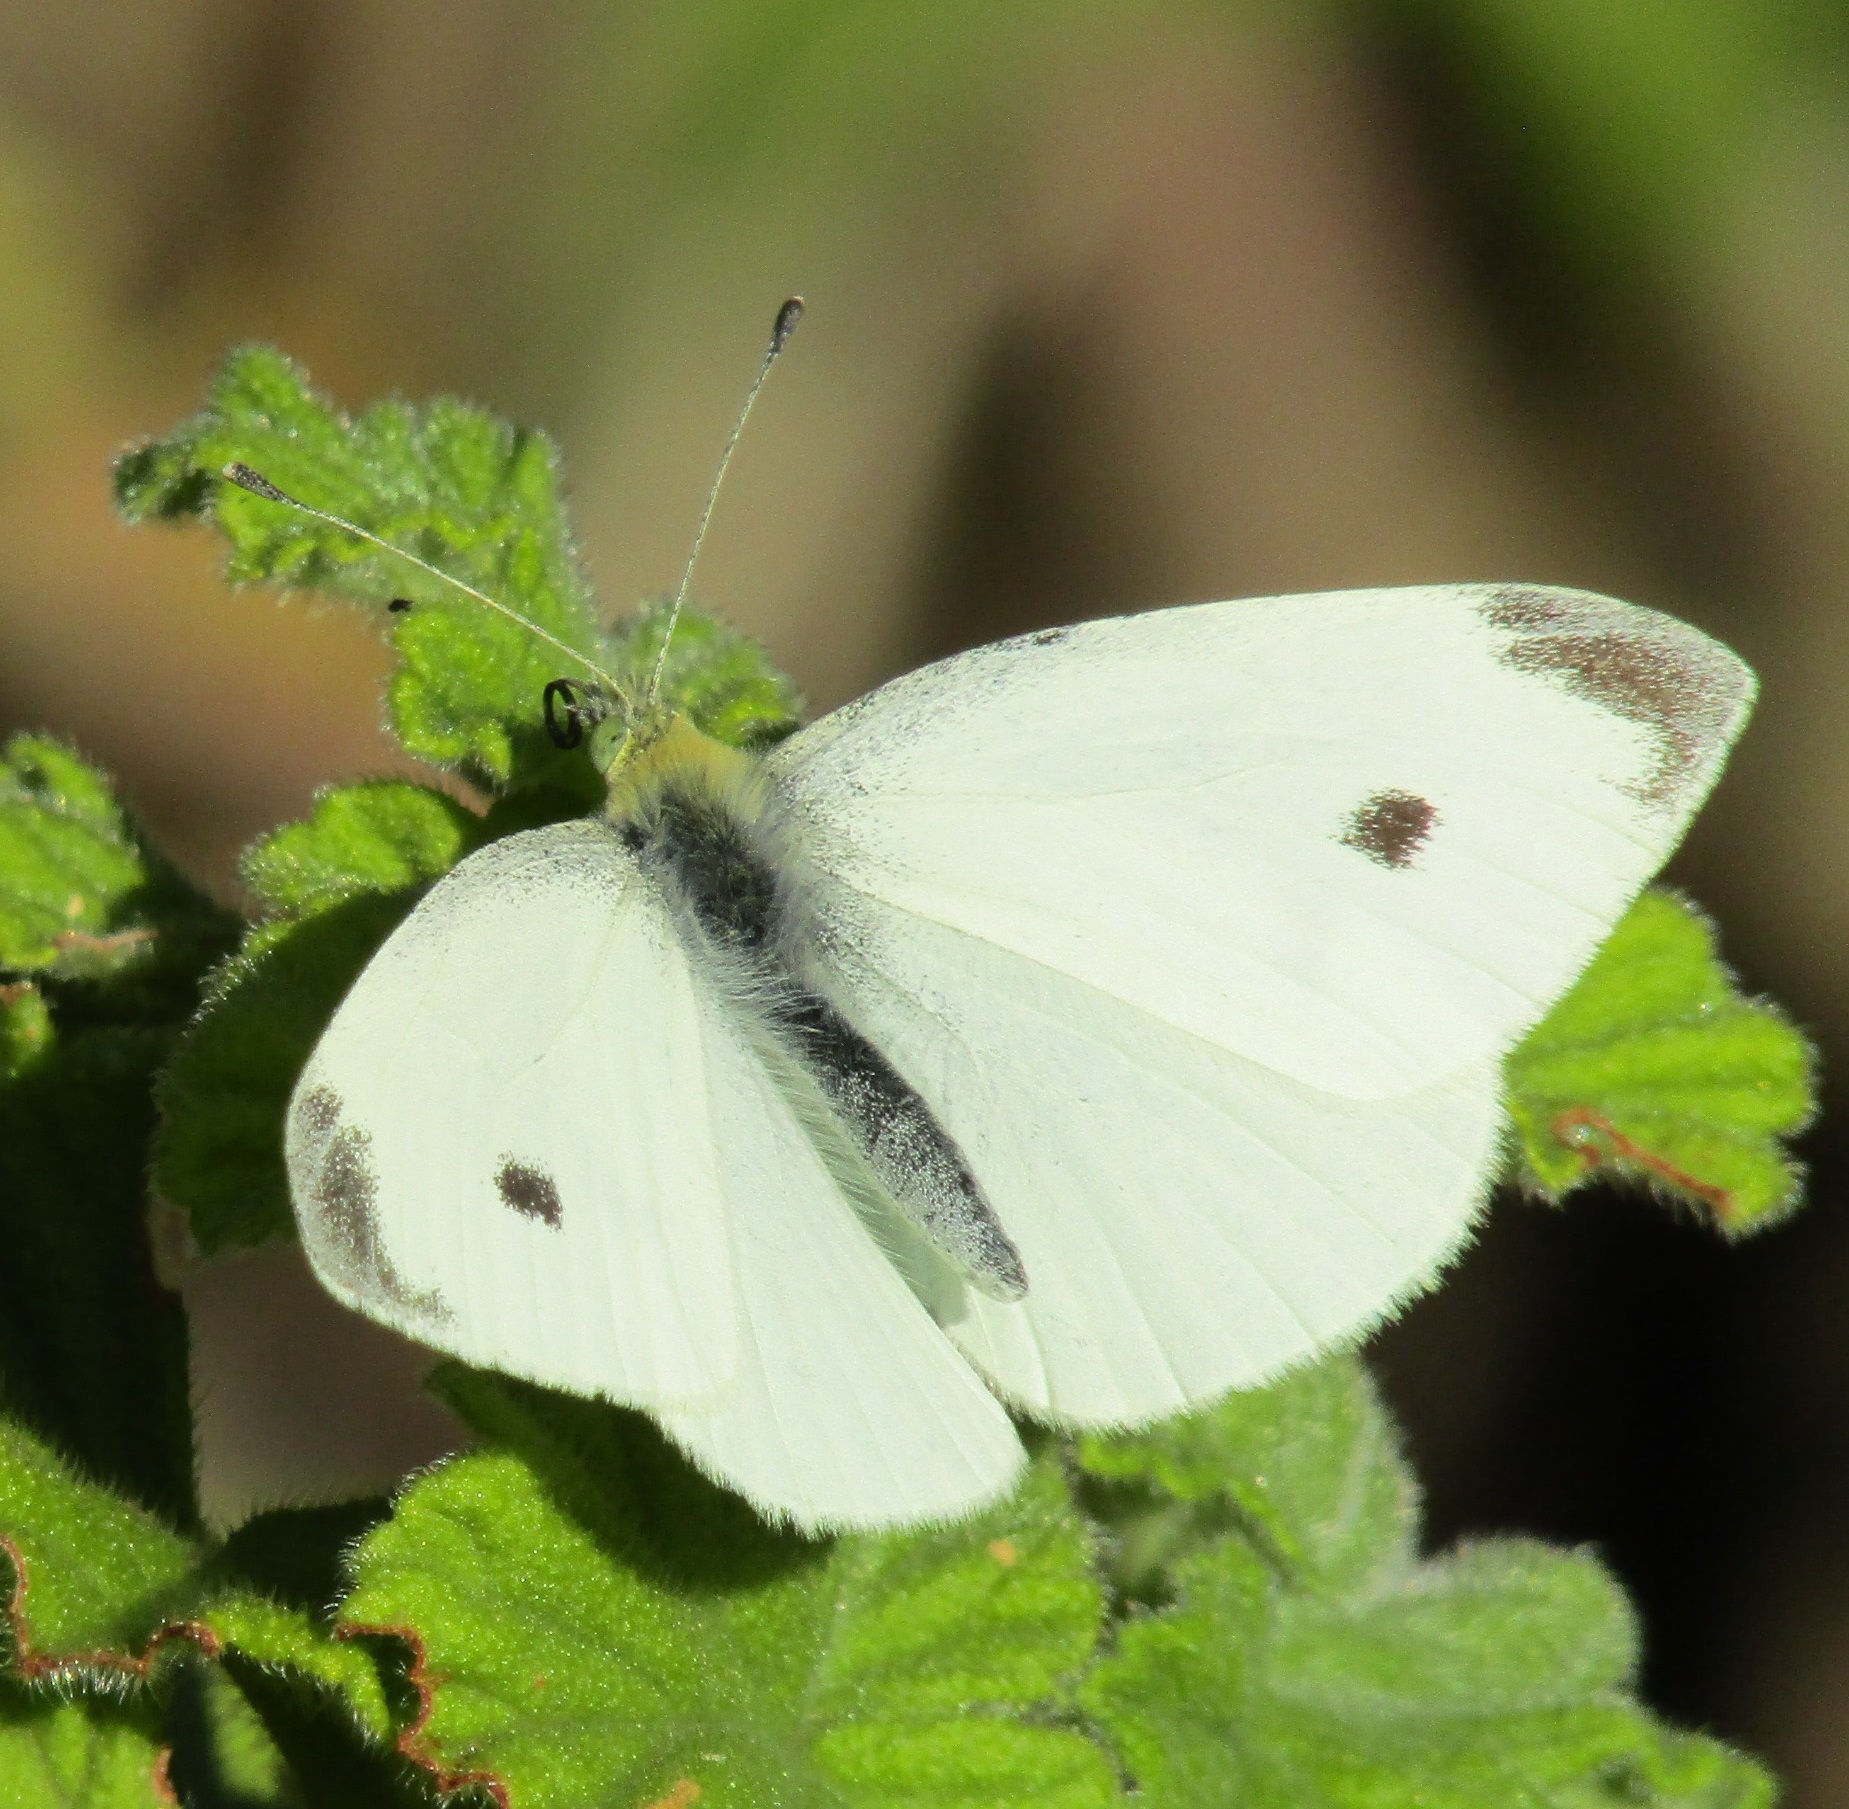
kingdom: Animalia
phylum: Arthropoda
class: Insecta
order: Lepidoptera
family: Pieridae
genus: Pieris
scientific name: Pieris rapae
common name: Small white
